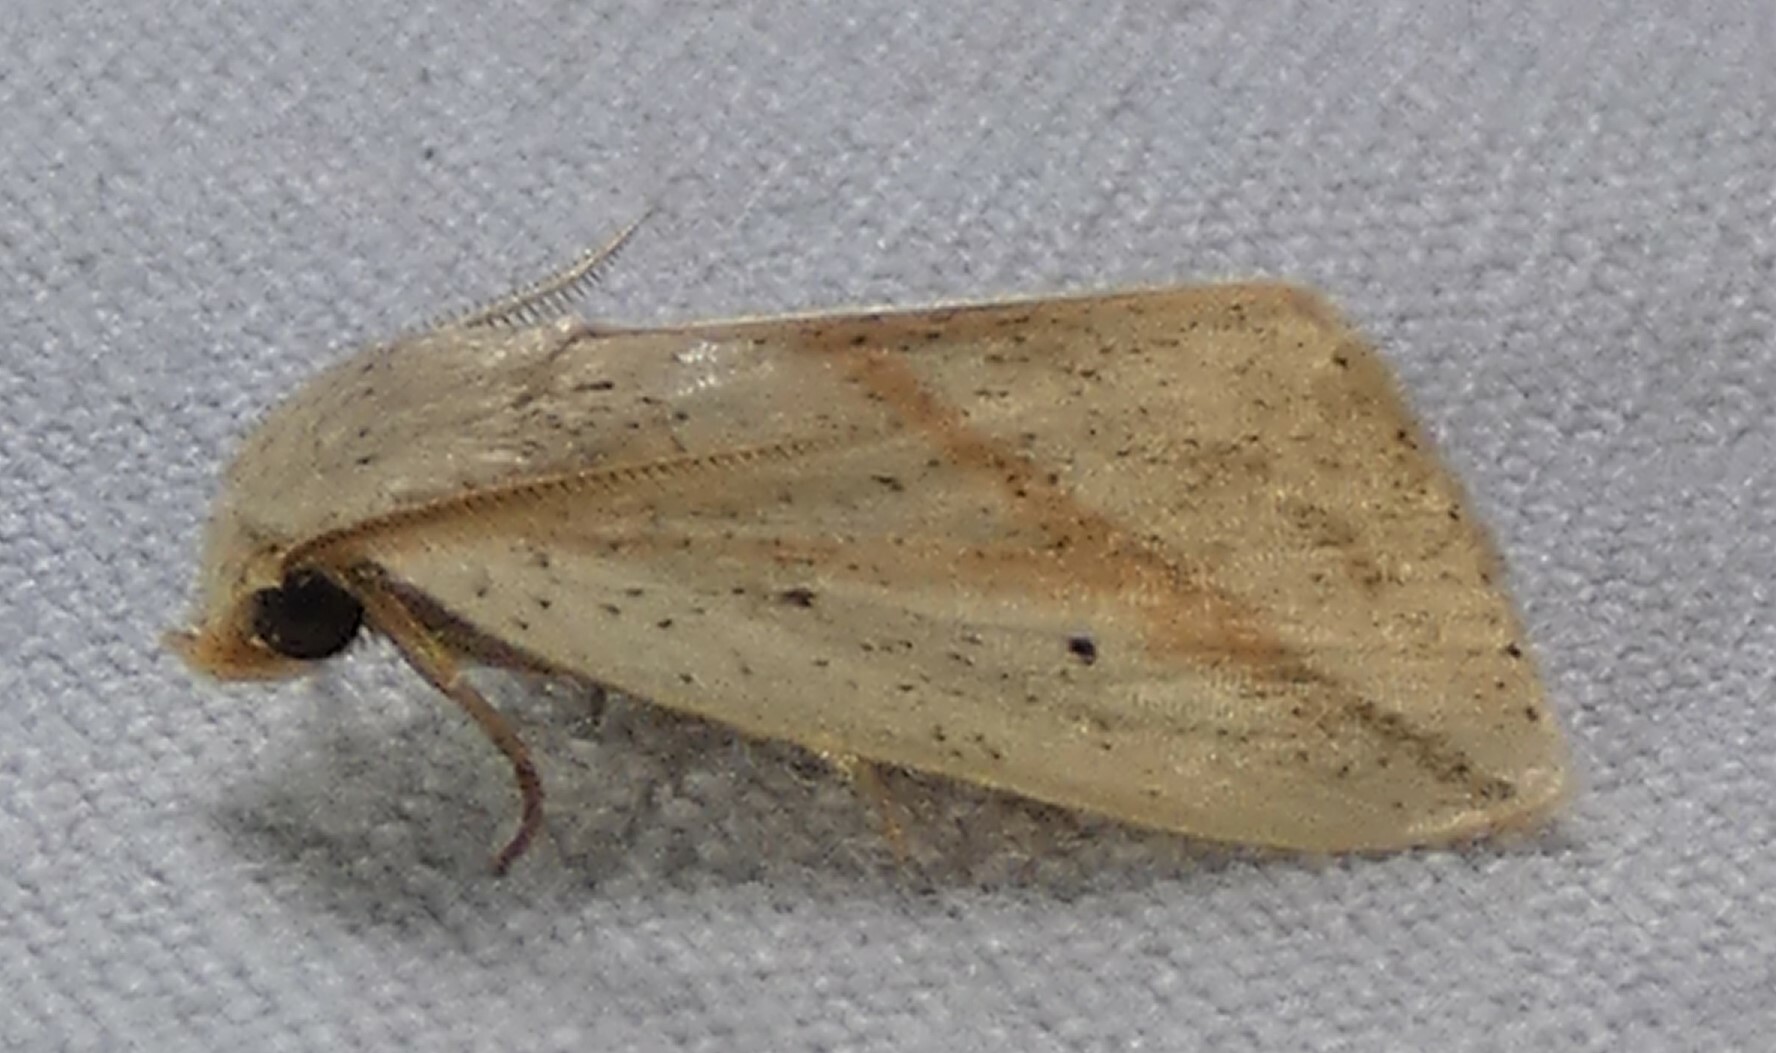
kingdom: Animalia
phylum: Arthropoda
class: Insecta
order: Lepidoptera
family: Noctuidae
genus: Amolita
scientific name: Amolita obliqua
